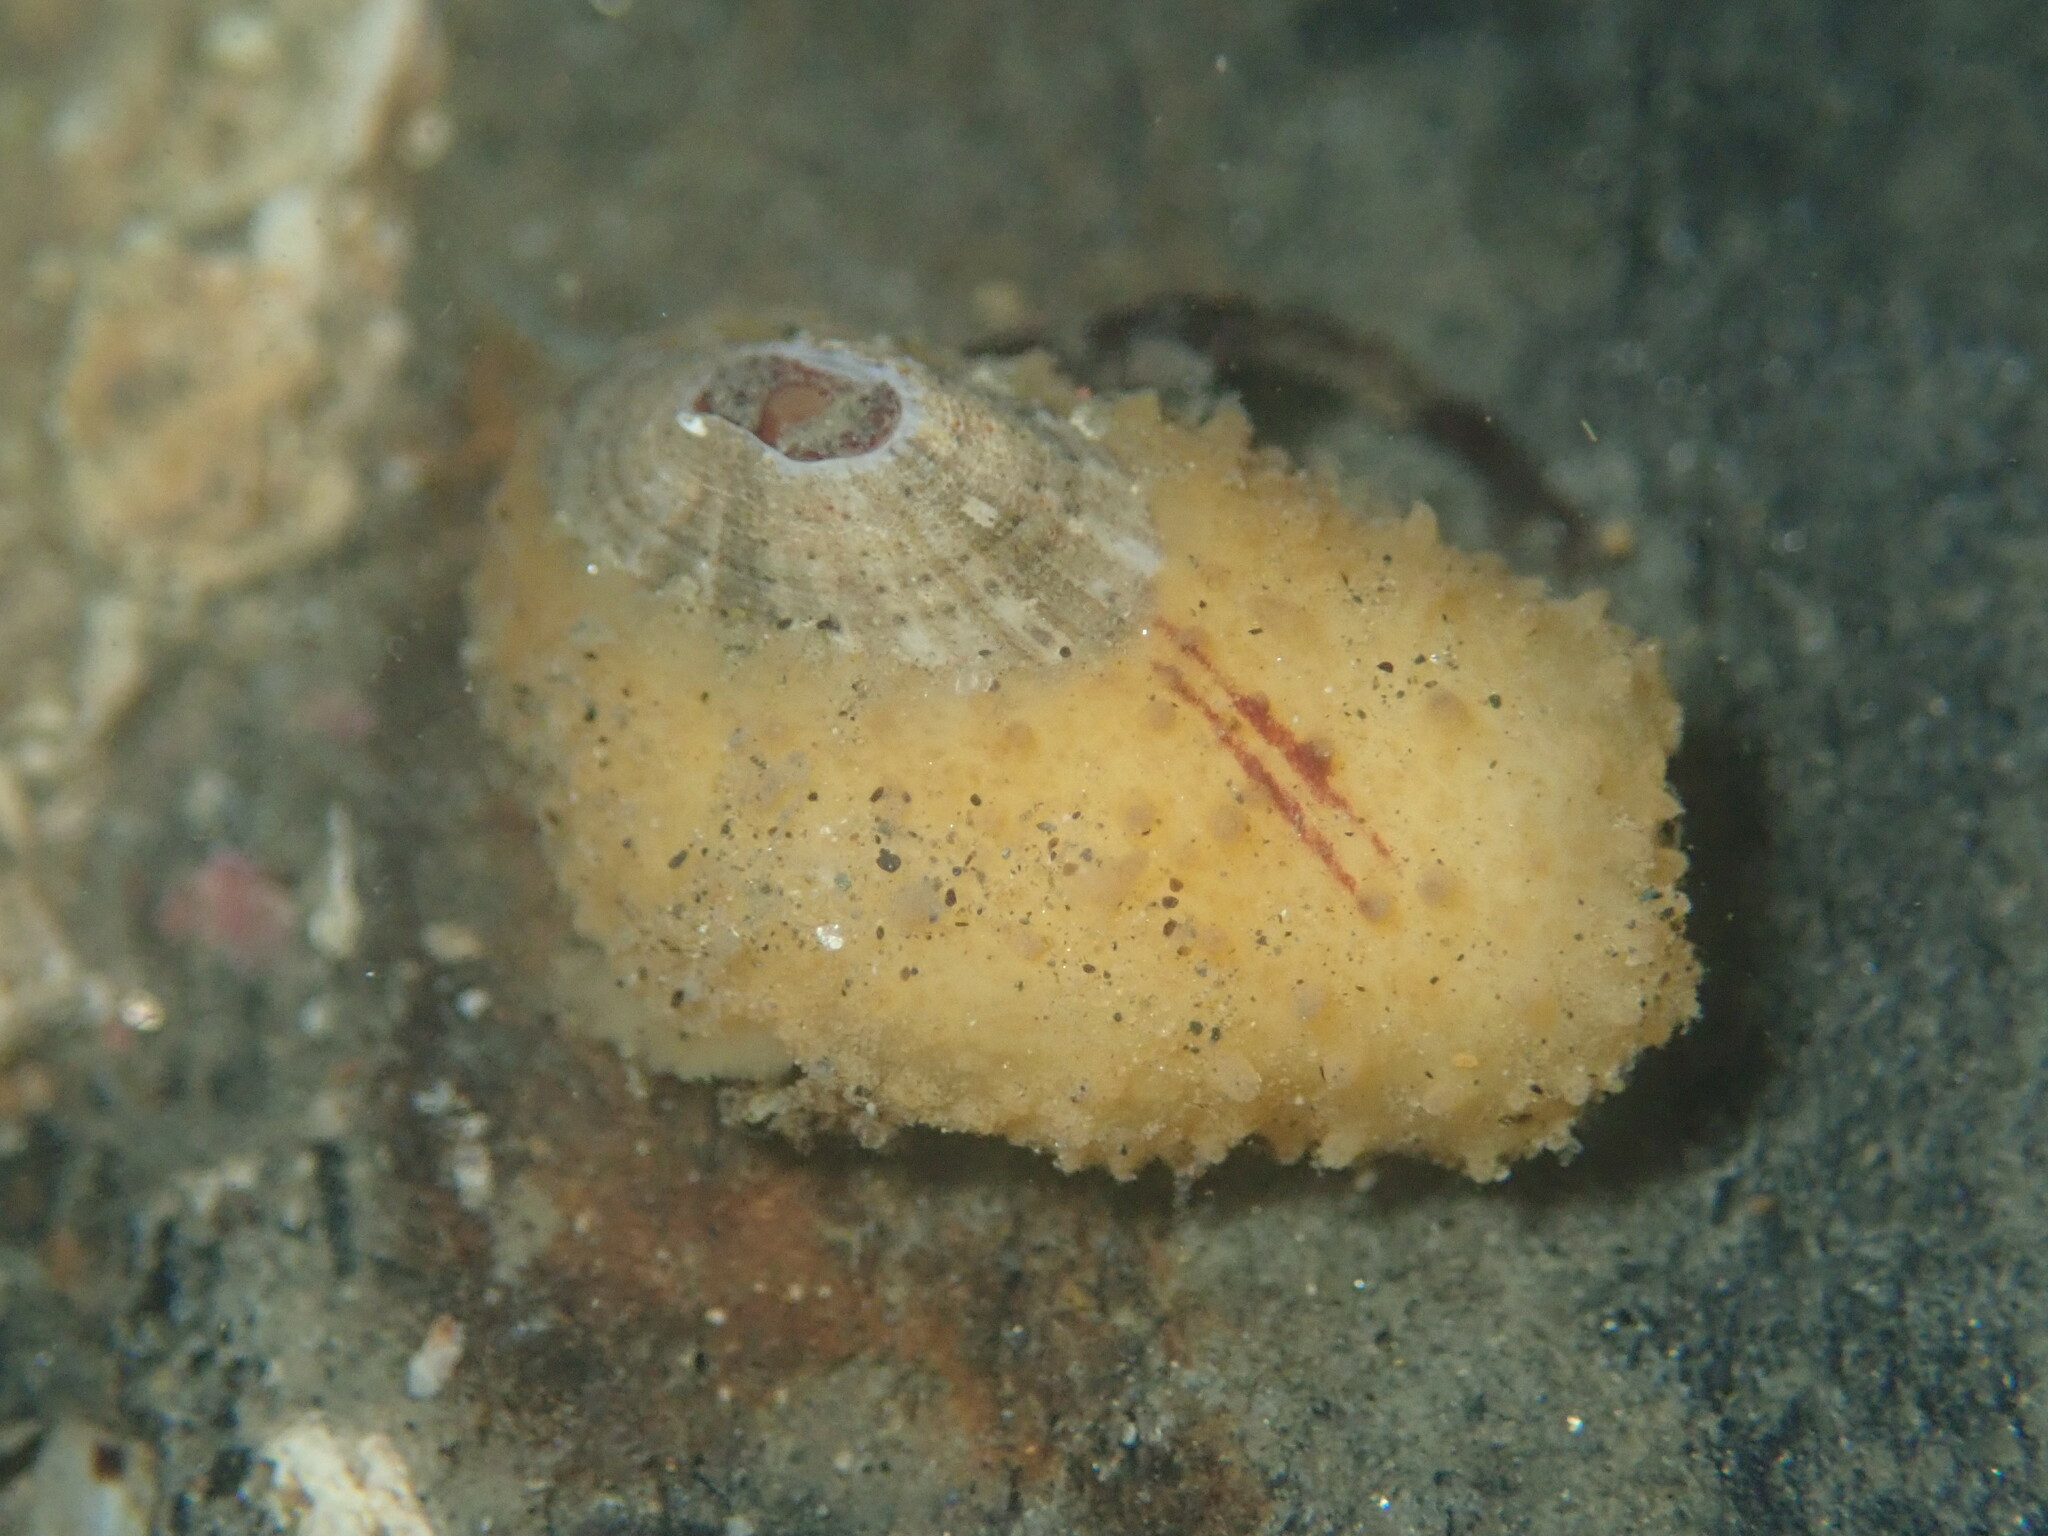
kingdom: Animalia
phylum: Mollusca
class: Gastropoda
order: Lepetellida
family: Fissurellidae
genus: Fissurellidea
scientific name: Fissurellidea bimaculata
